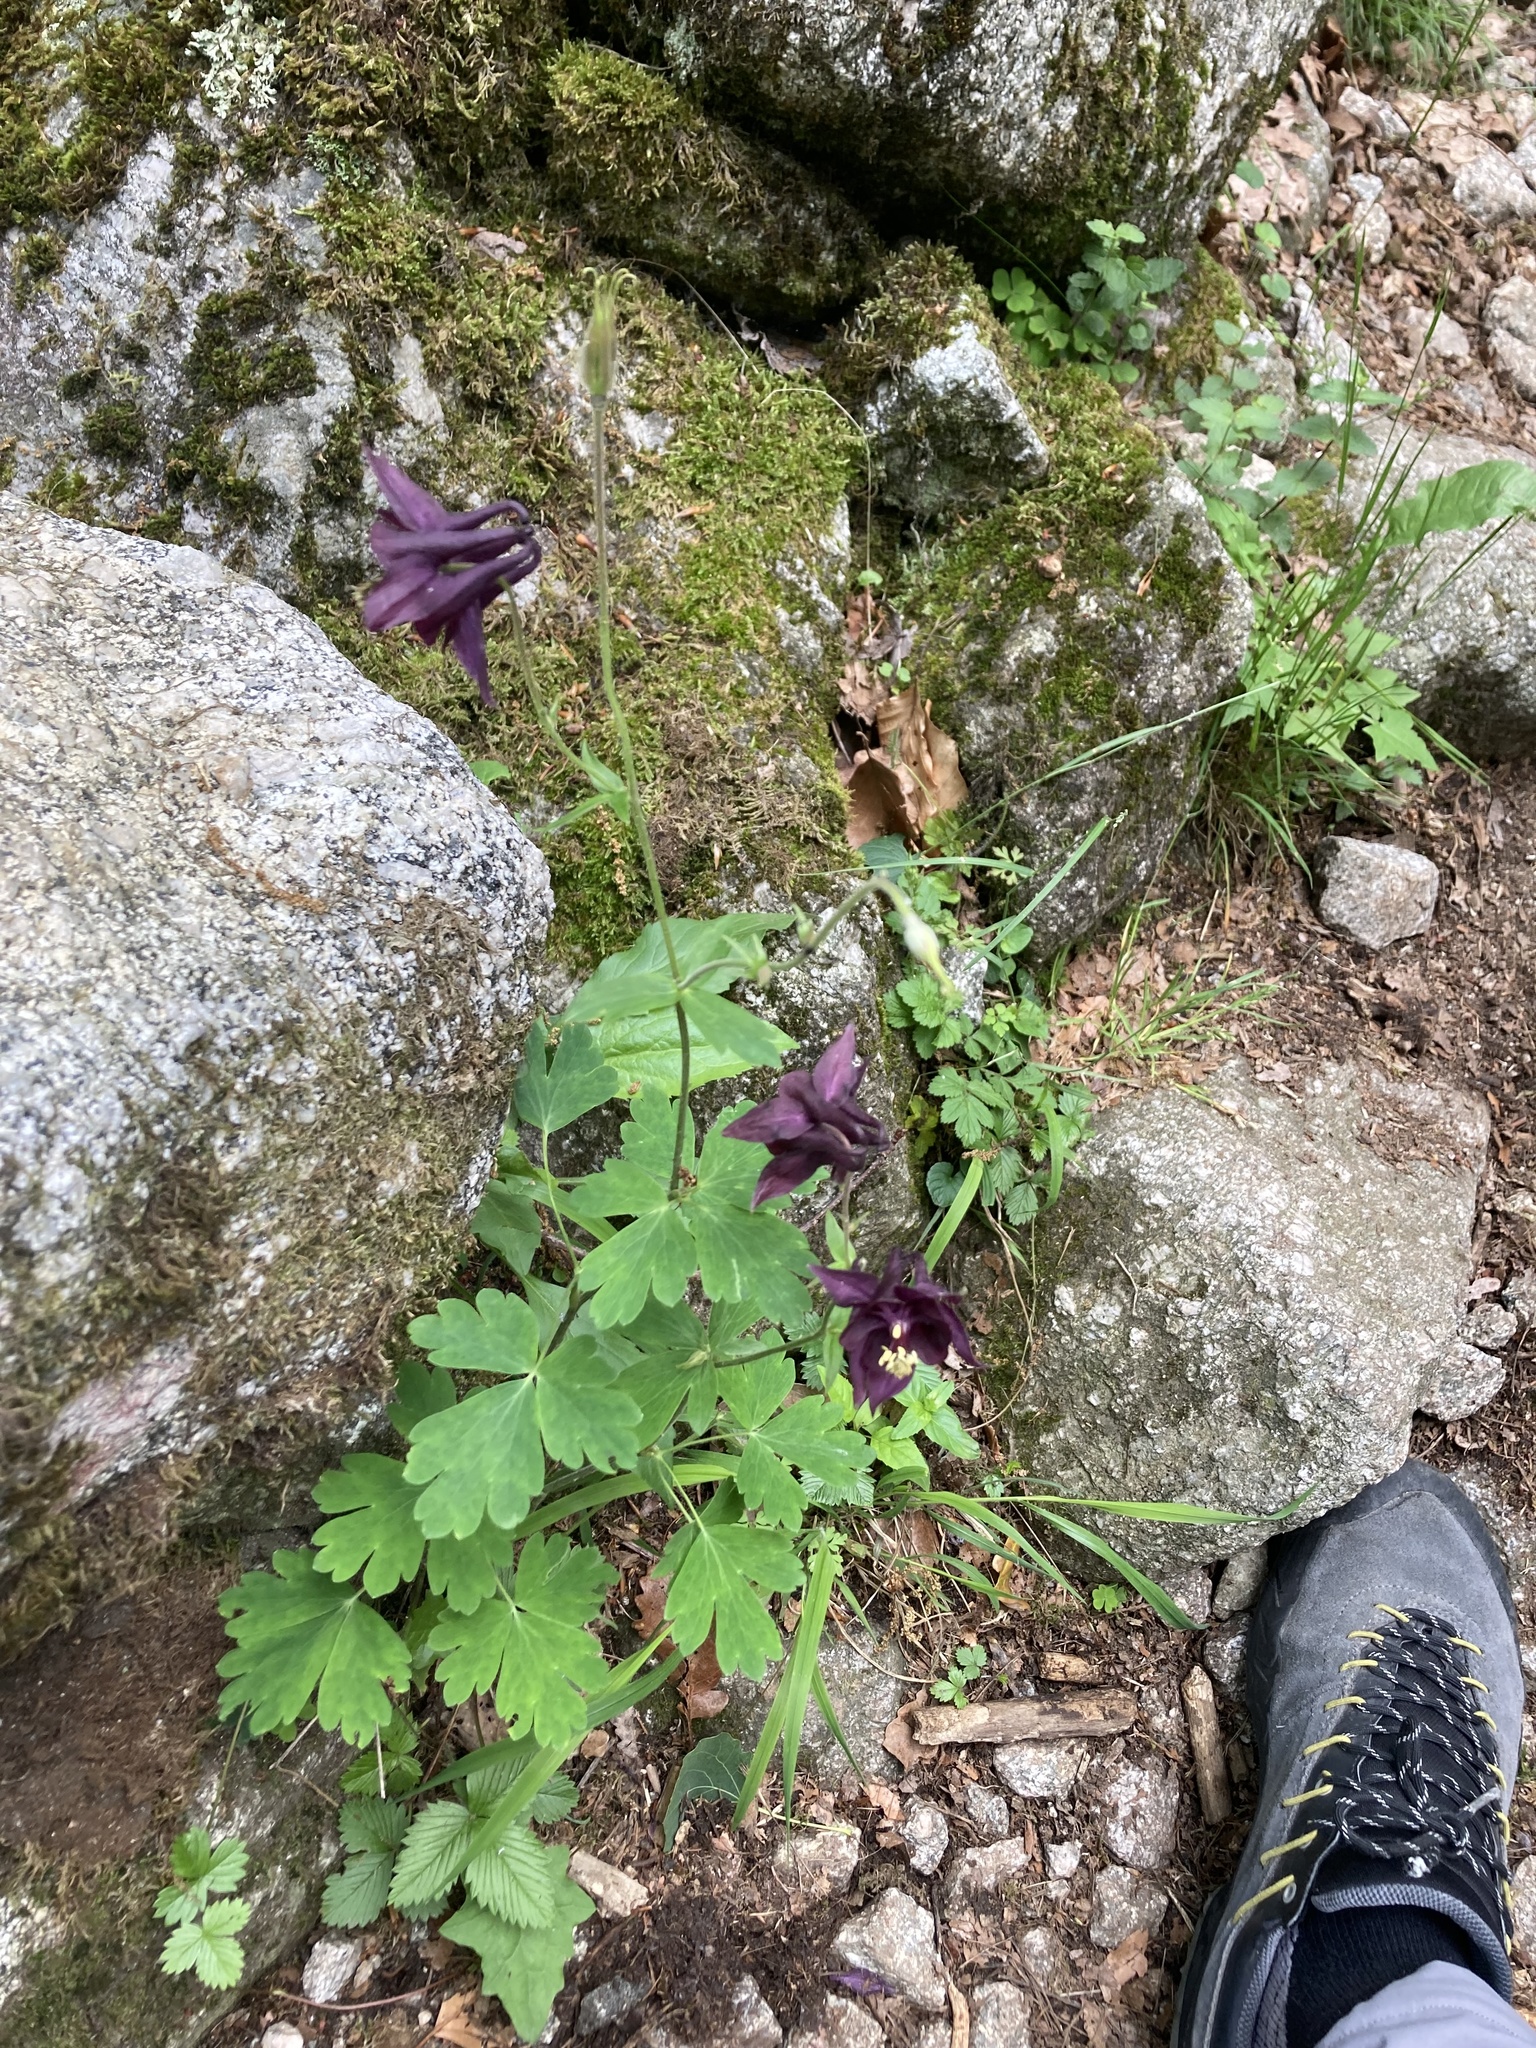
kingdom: Plantae
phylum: Tracheophyta
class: Magnoliopsida
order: Ranunculales
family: Ranunculaceae
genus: Aquilegia
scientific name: Aquilegia atrata
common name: Dark columbine
